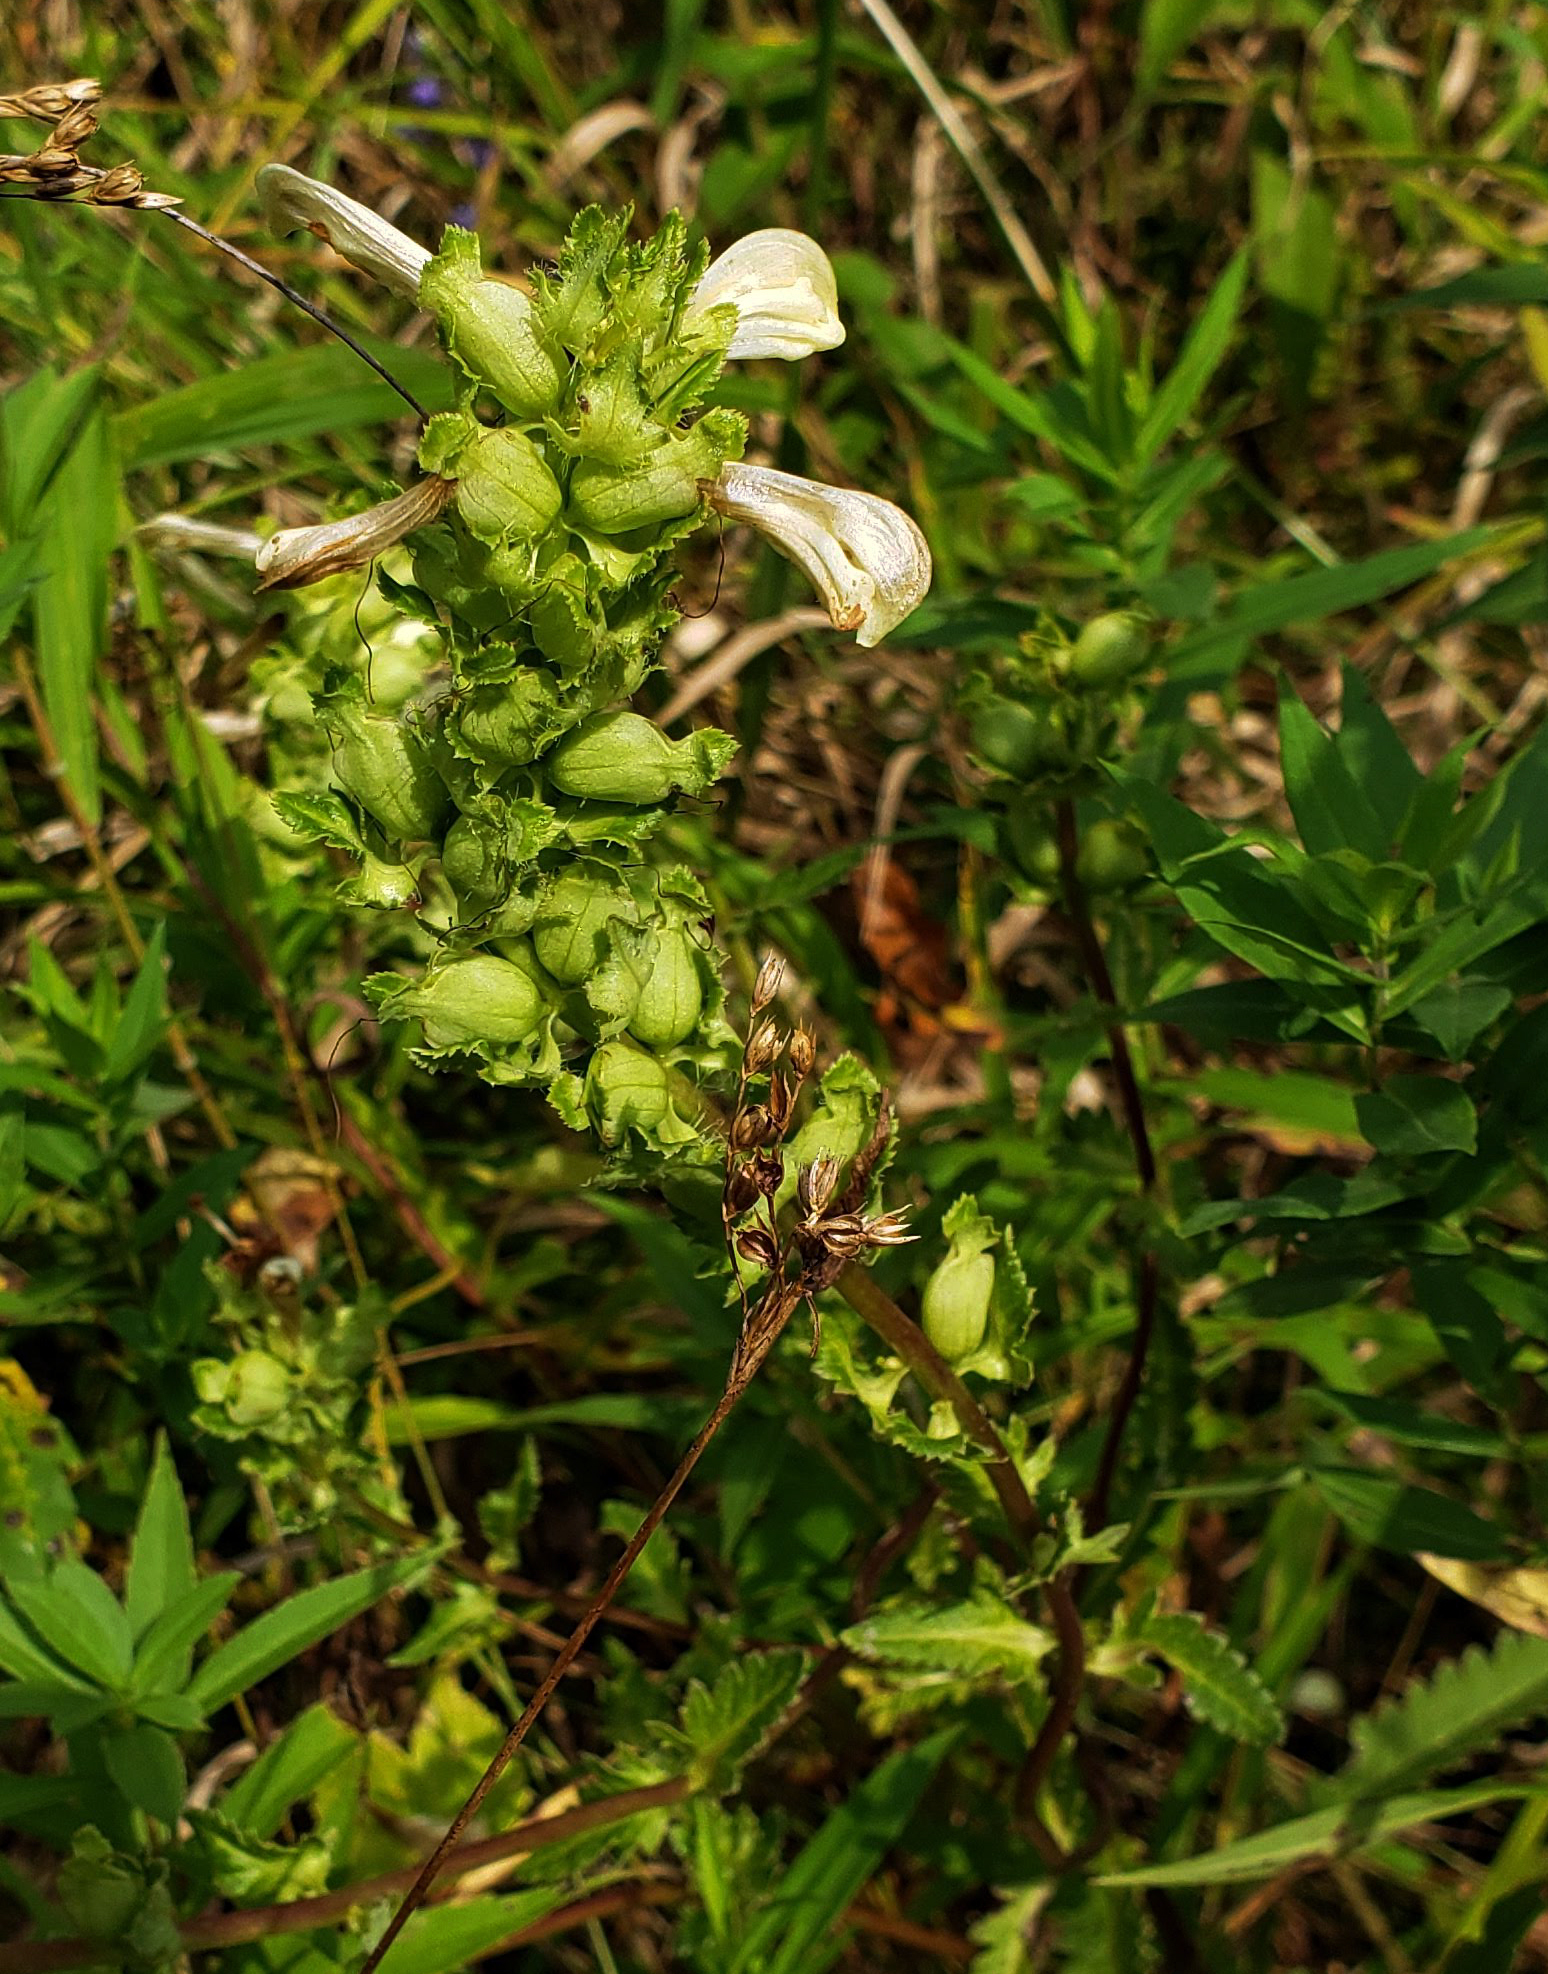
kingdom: Plantae
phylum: Tracheophyta
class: Magnoliopsida
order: Lamiales
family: Orobanchaceae
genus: Pedicularis
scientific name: Pedicularis lanceolata
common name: Swamp lousewort
